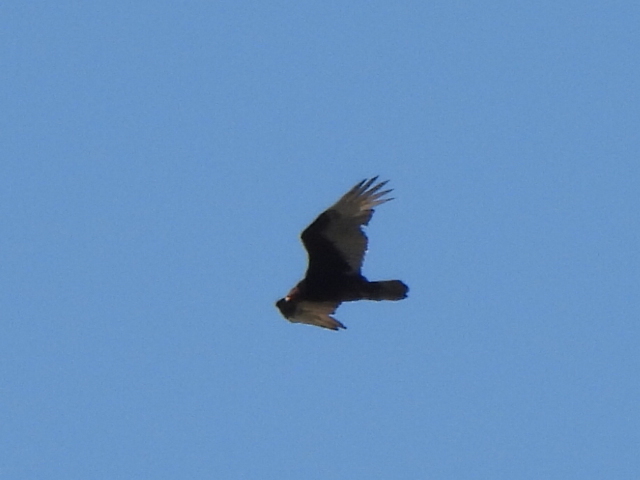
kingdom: Animalia
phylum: Chordata
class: Aves
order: Accipitriformes
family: Cathartidae
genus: Cathartes
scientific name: Cathartes aura
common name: Turkey vulture
